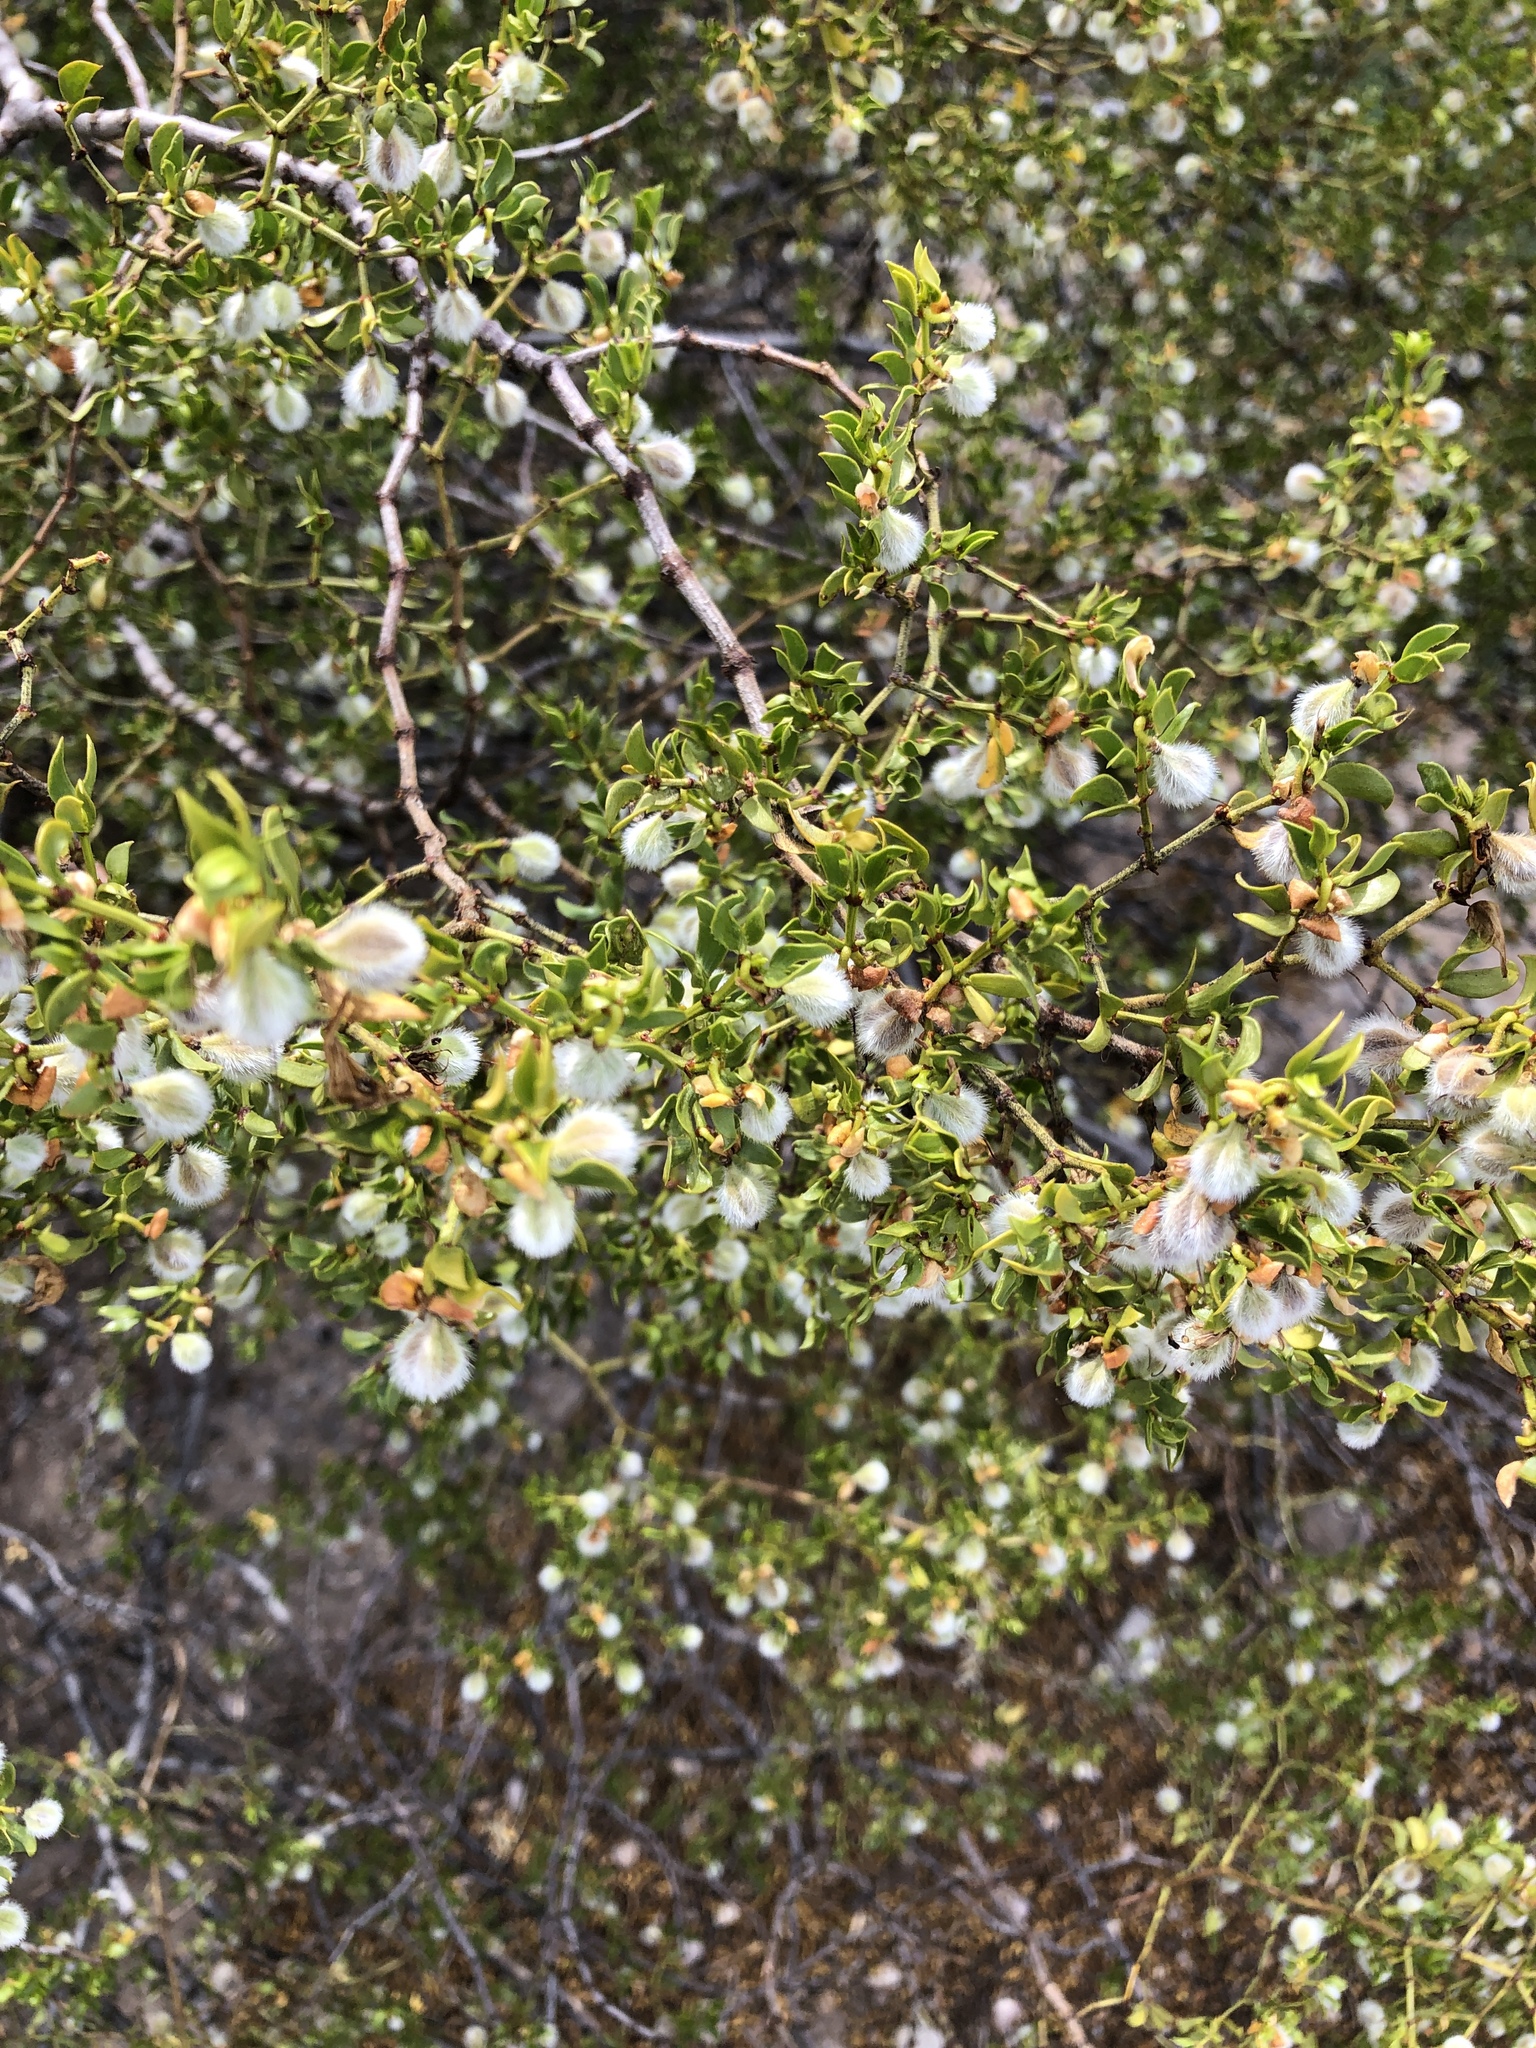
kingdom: Plantae
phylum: Tracheophyta
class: Magnoliopsida
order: Zygophyllales
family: Zygophyllaceae
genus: Larrea
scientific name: Larrea tridentata
